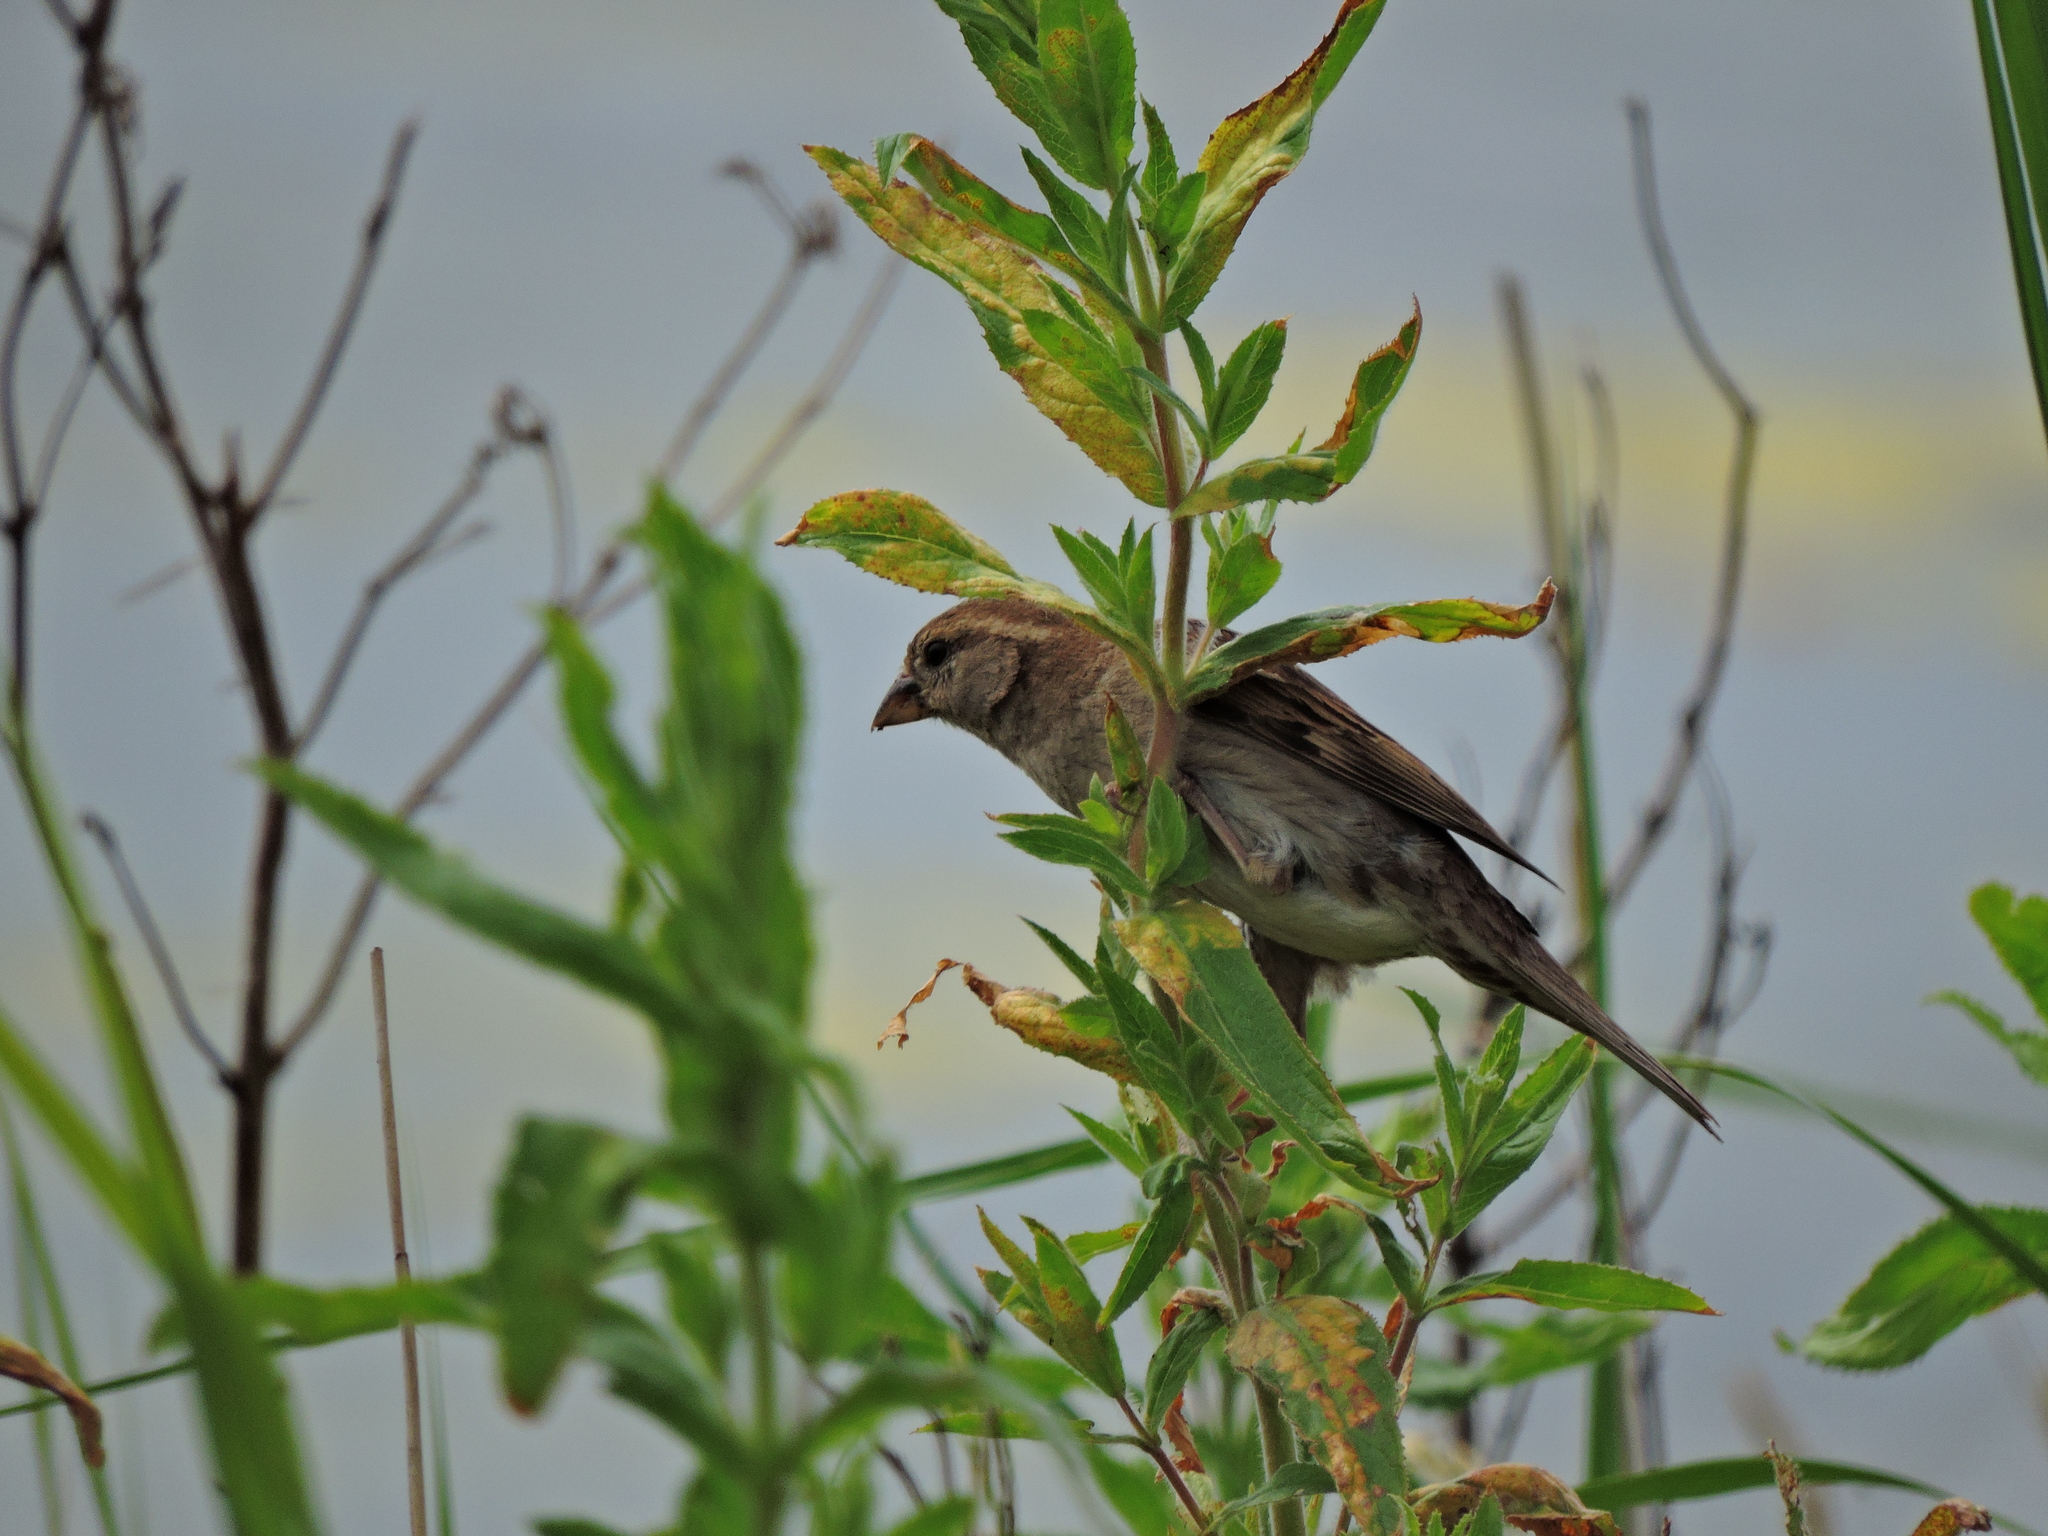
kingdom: Animalia
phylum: Chordata
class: Aves
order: Passeriformes
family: Passeridae
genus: Passer
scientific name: Passer domesticus
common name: House sparrow
